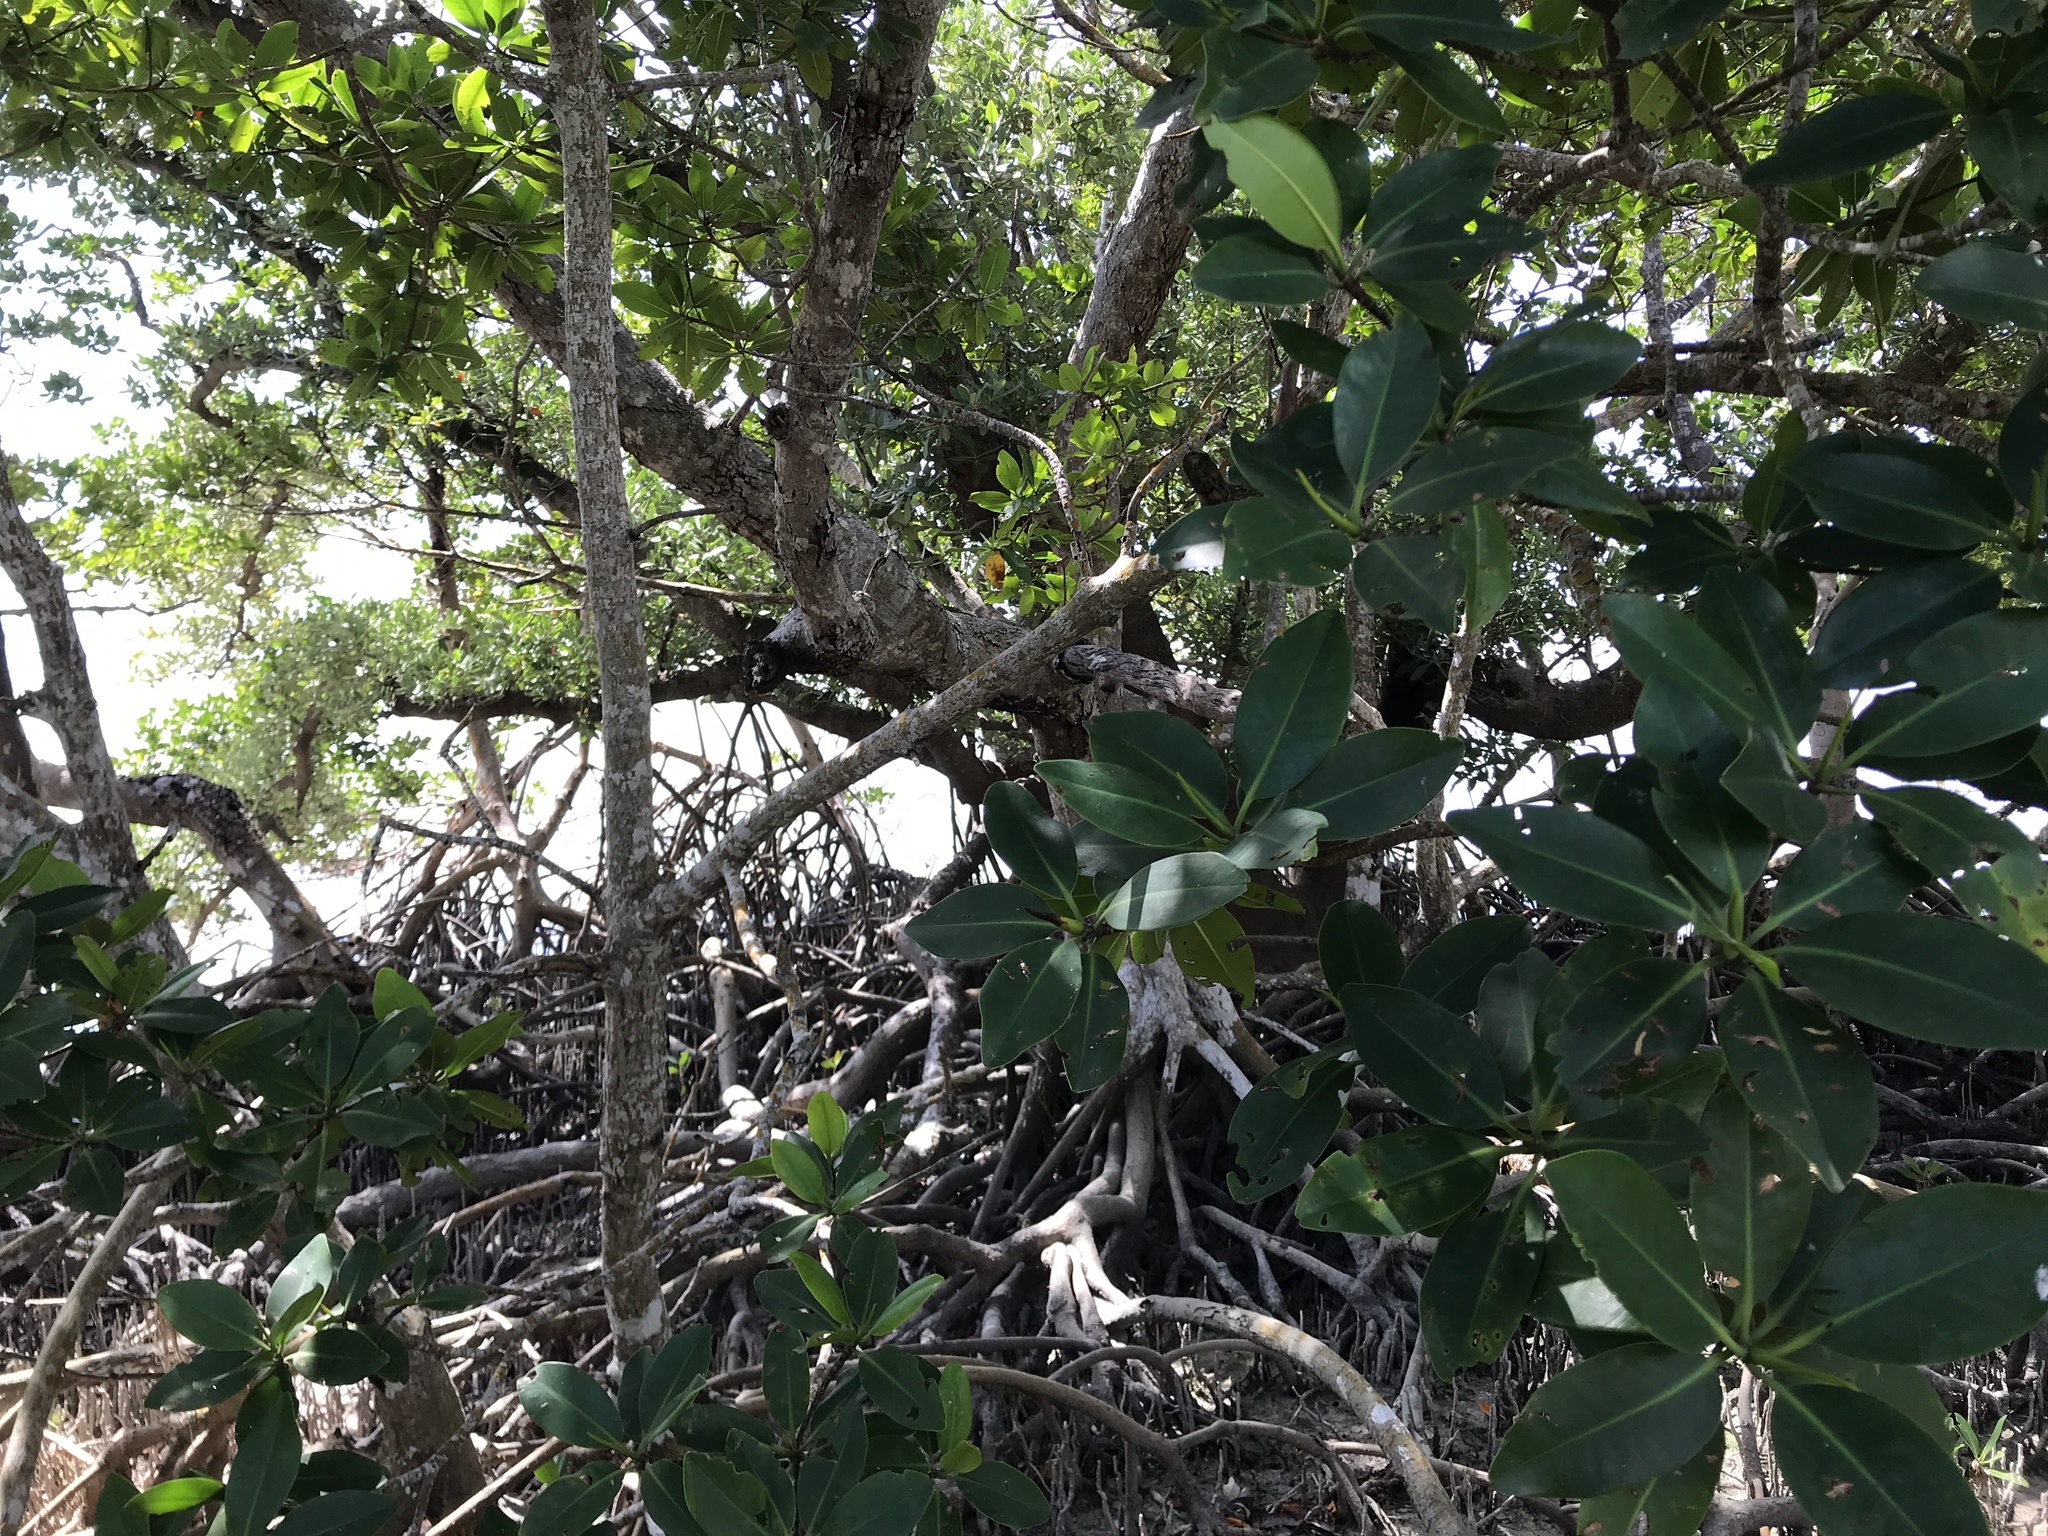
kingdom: Plantae
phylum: Tracheophyta
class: Magnoliopsida
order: Malpighiales
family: Rhizophoraceae
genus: Rhizophora
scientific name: Rhizophora mangle
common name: Red mangrove
